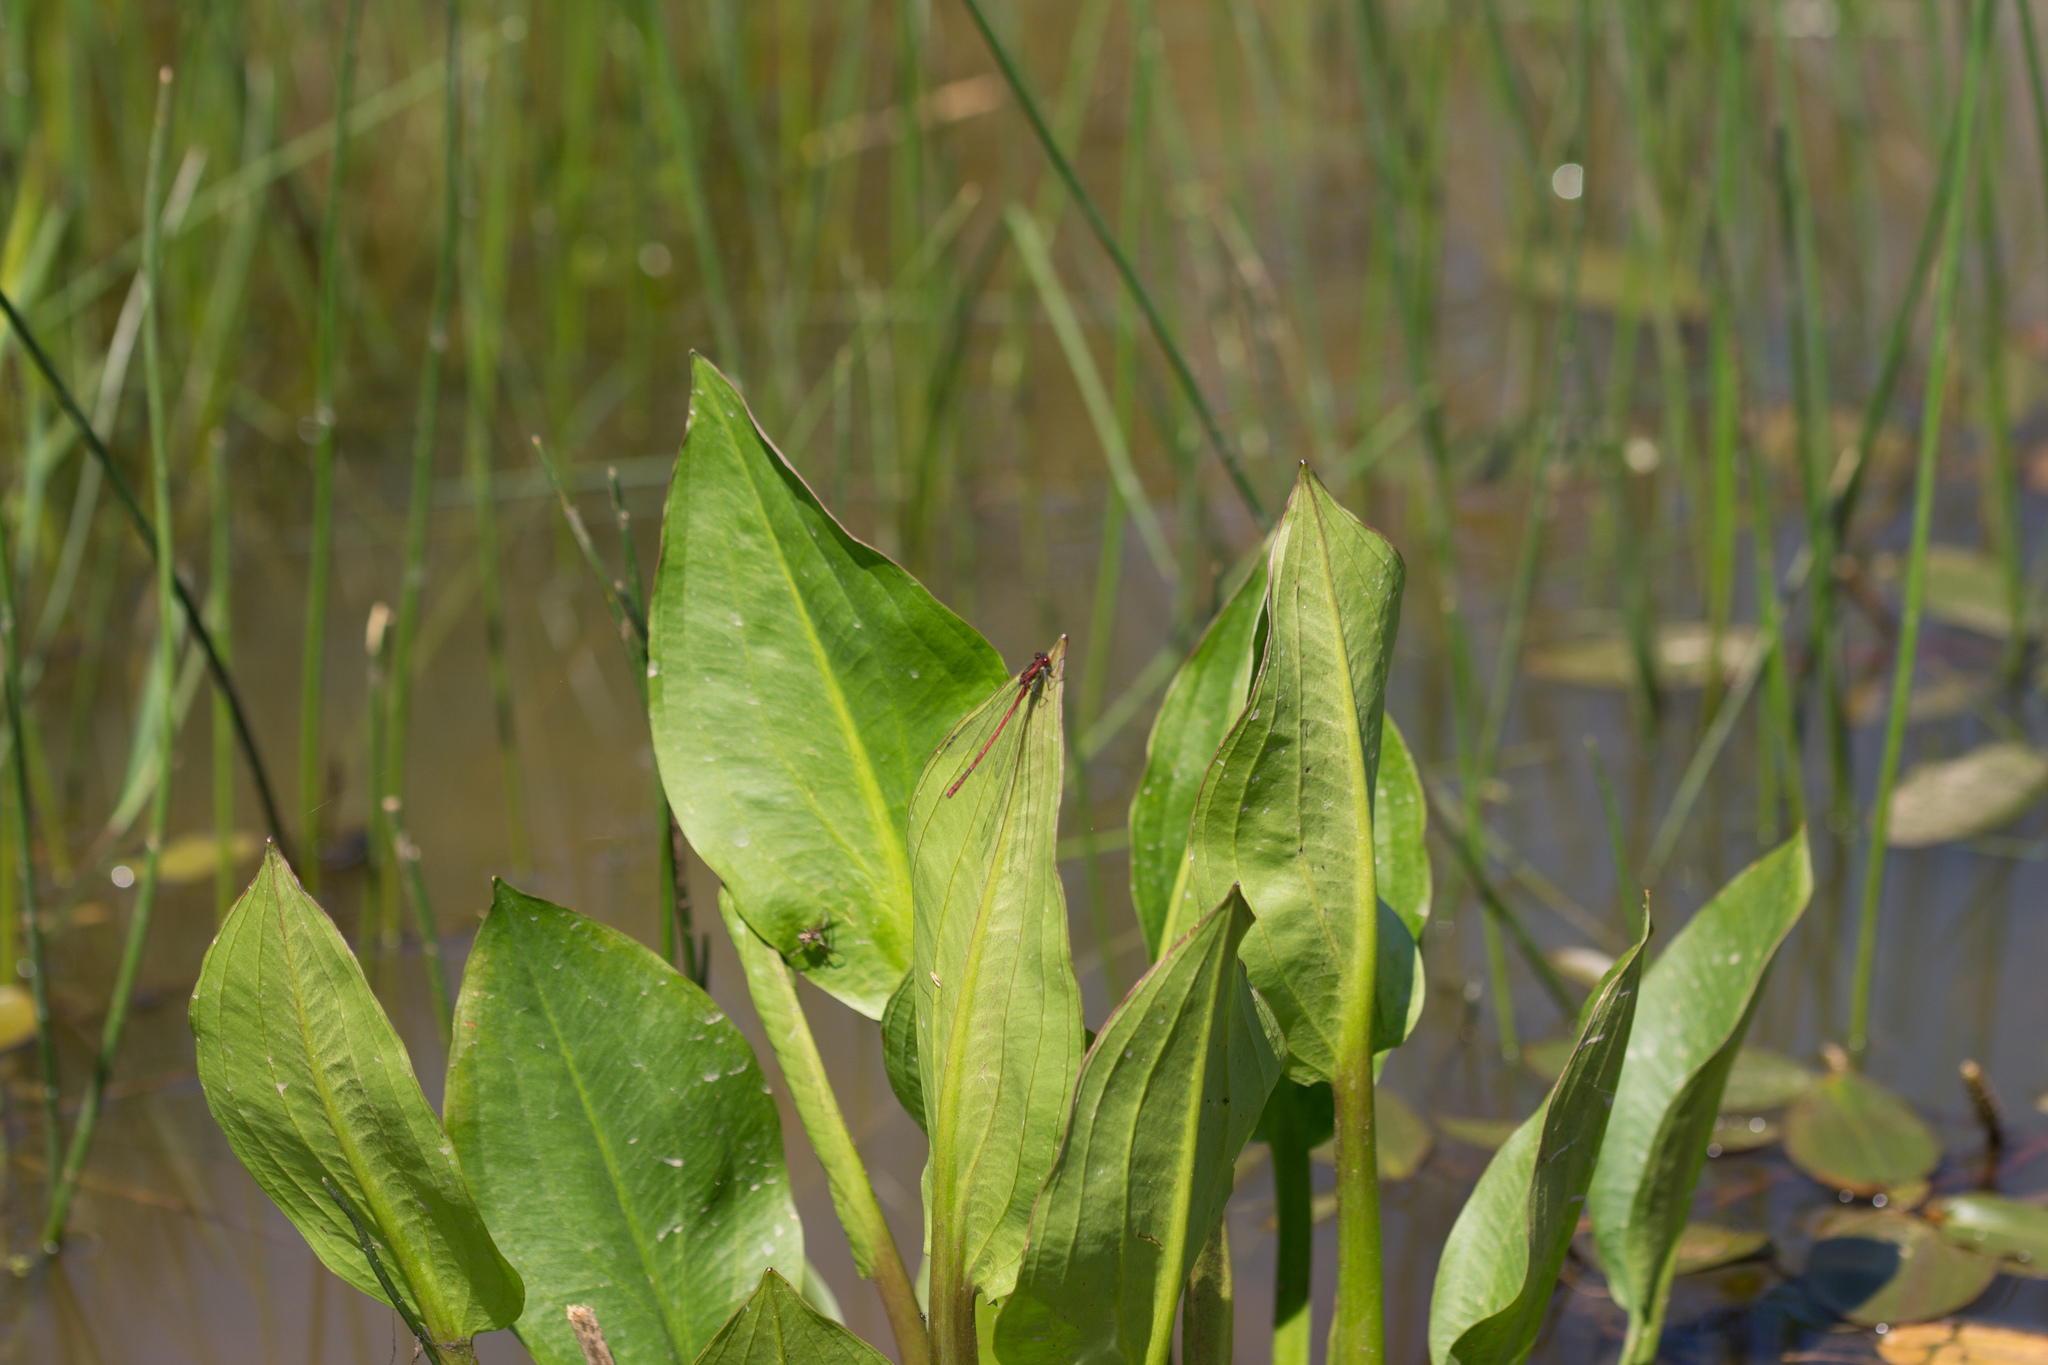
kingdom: Animalia
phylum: Arthropoda
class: Insecta
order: Odonata
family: Coenagrionidae
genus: Pyrrhosoma
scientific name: Pyrrhosoma nymphula
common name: Large red damsel
